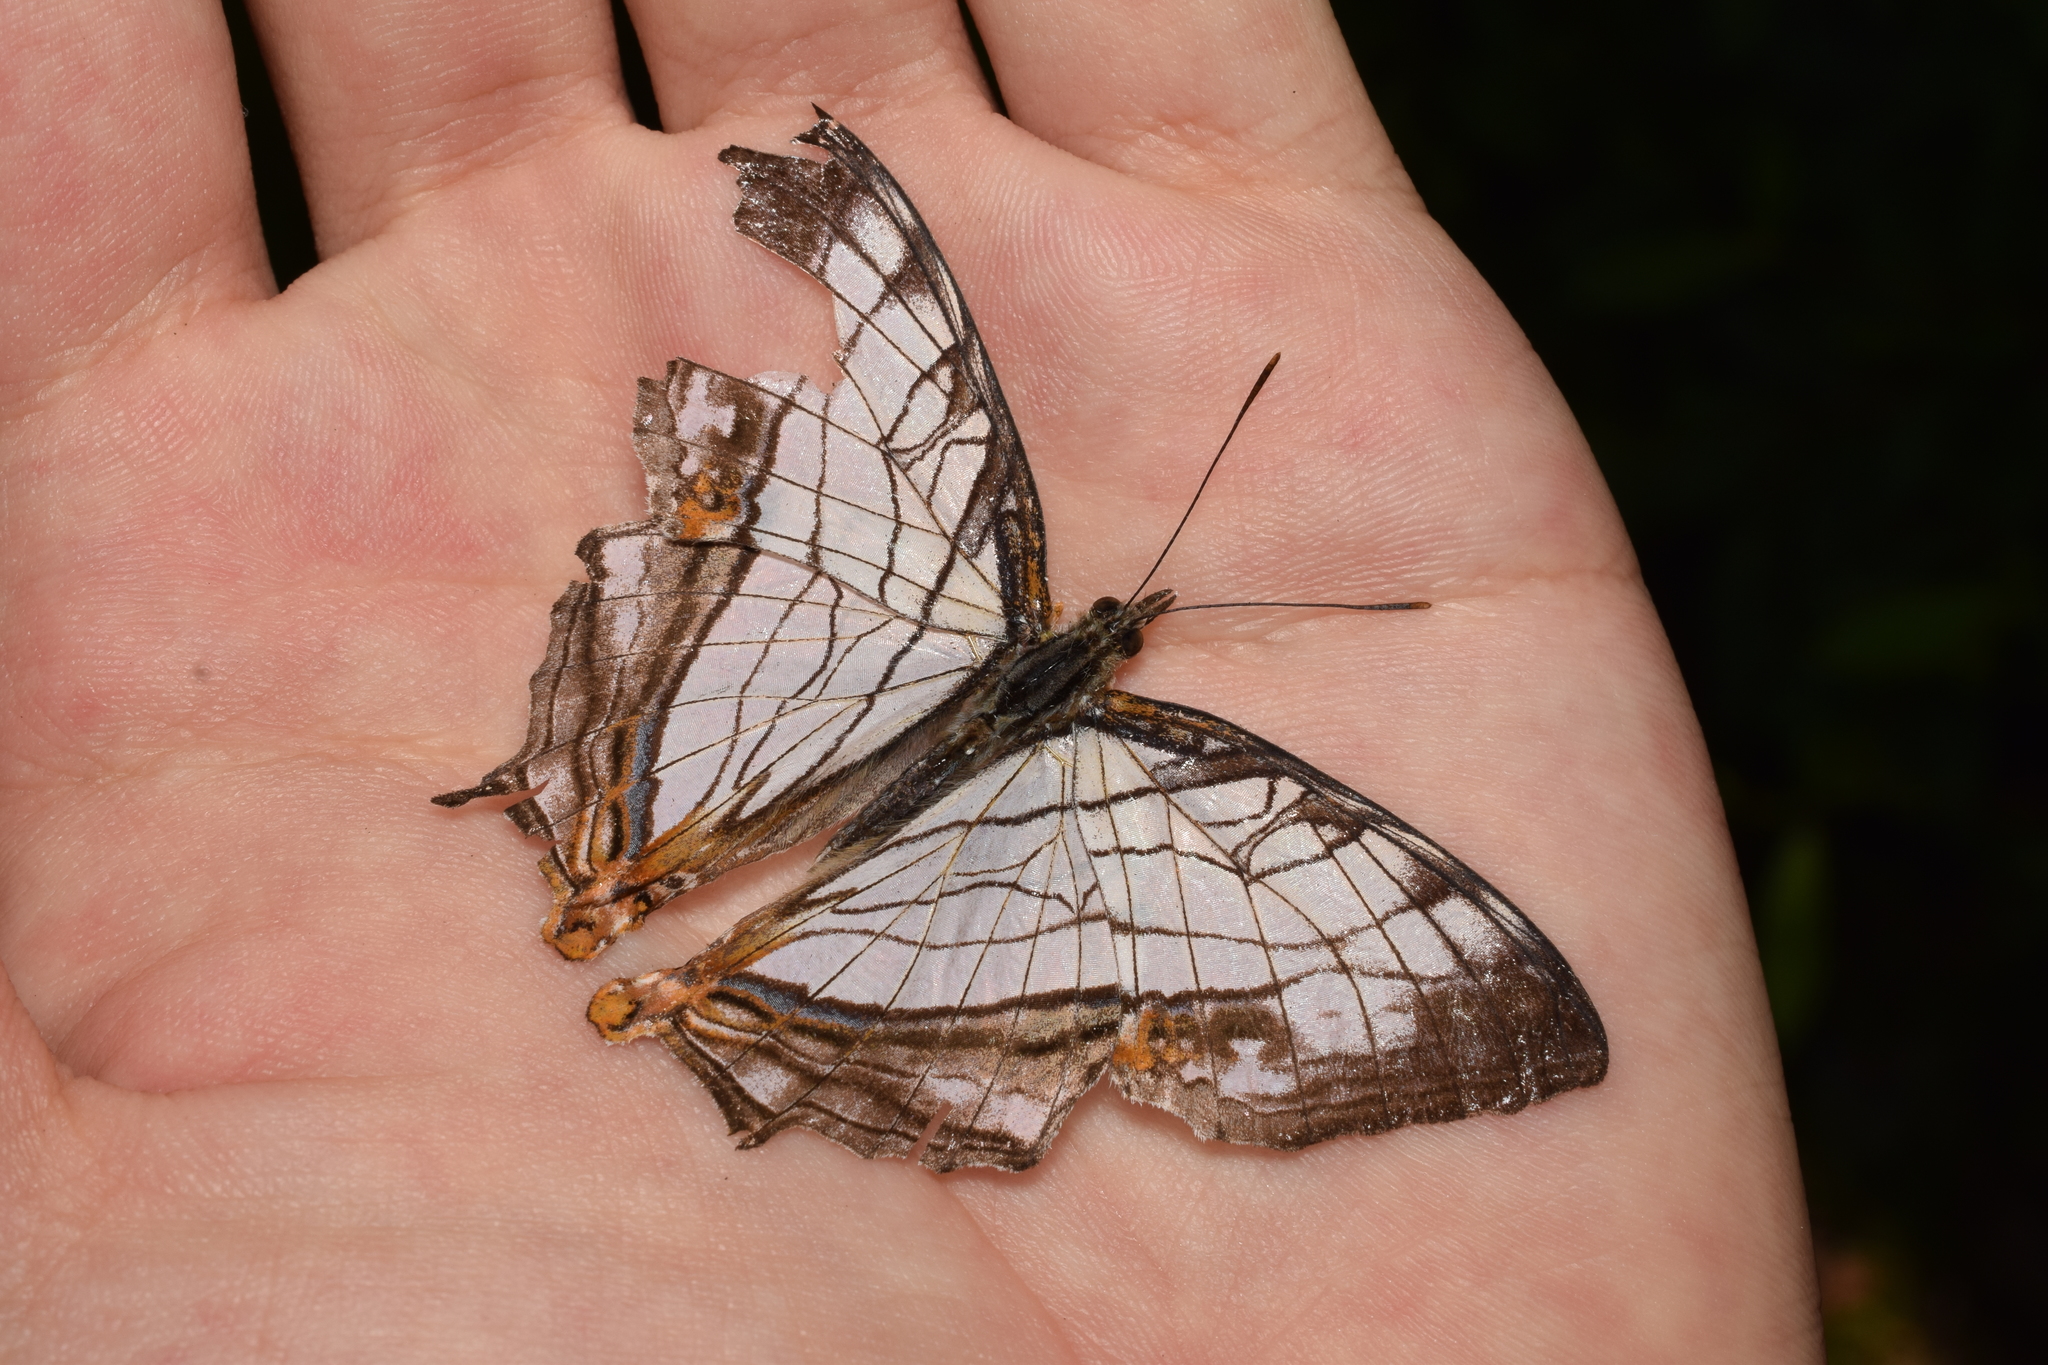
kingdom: Animalia
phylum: Arthropoda
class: Insecta
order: Lepidoptera
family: Nymphalidae
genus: Cyrestis
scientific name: Cyrestis thyodamas
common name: Common mapwing
